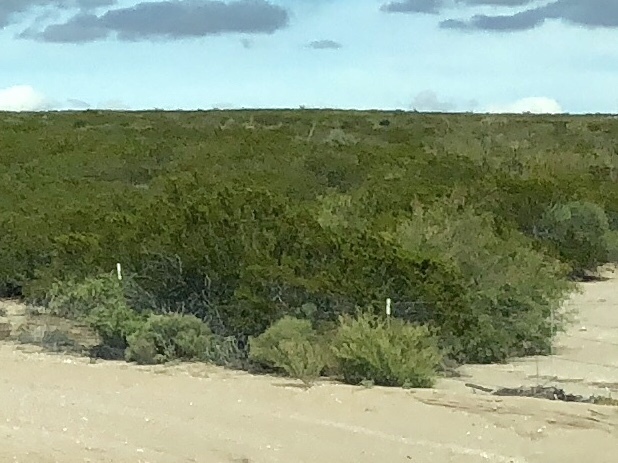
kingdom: Plantae
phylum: Tracheophyta
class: Magnoliopsida
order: Zygophyllales
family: Zygophyllaceae
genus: Larrea
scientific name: Larrea tridentata
